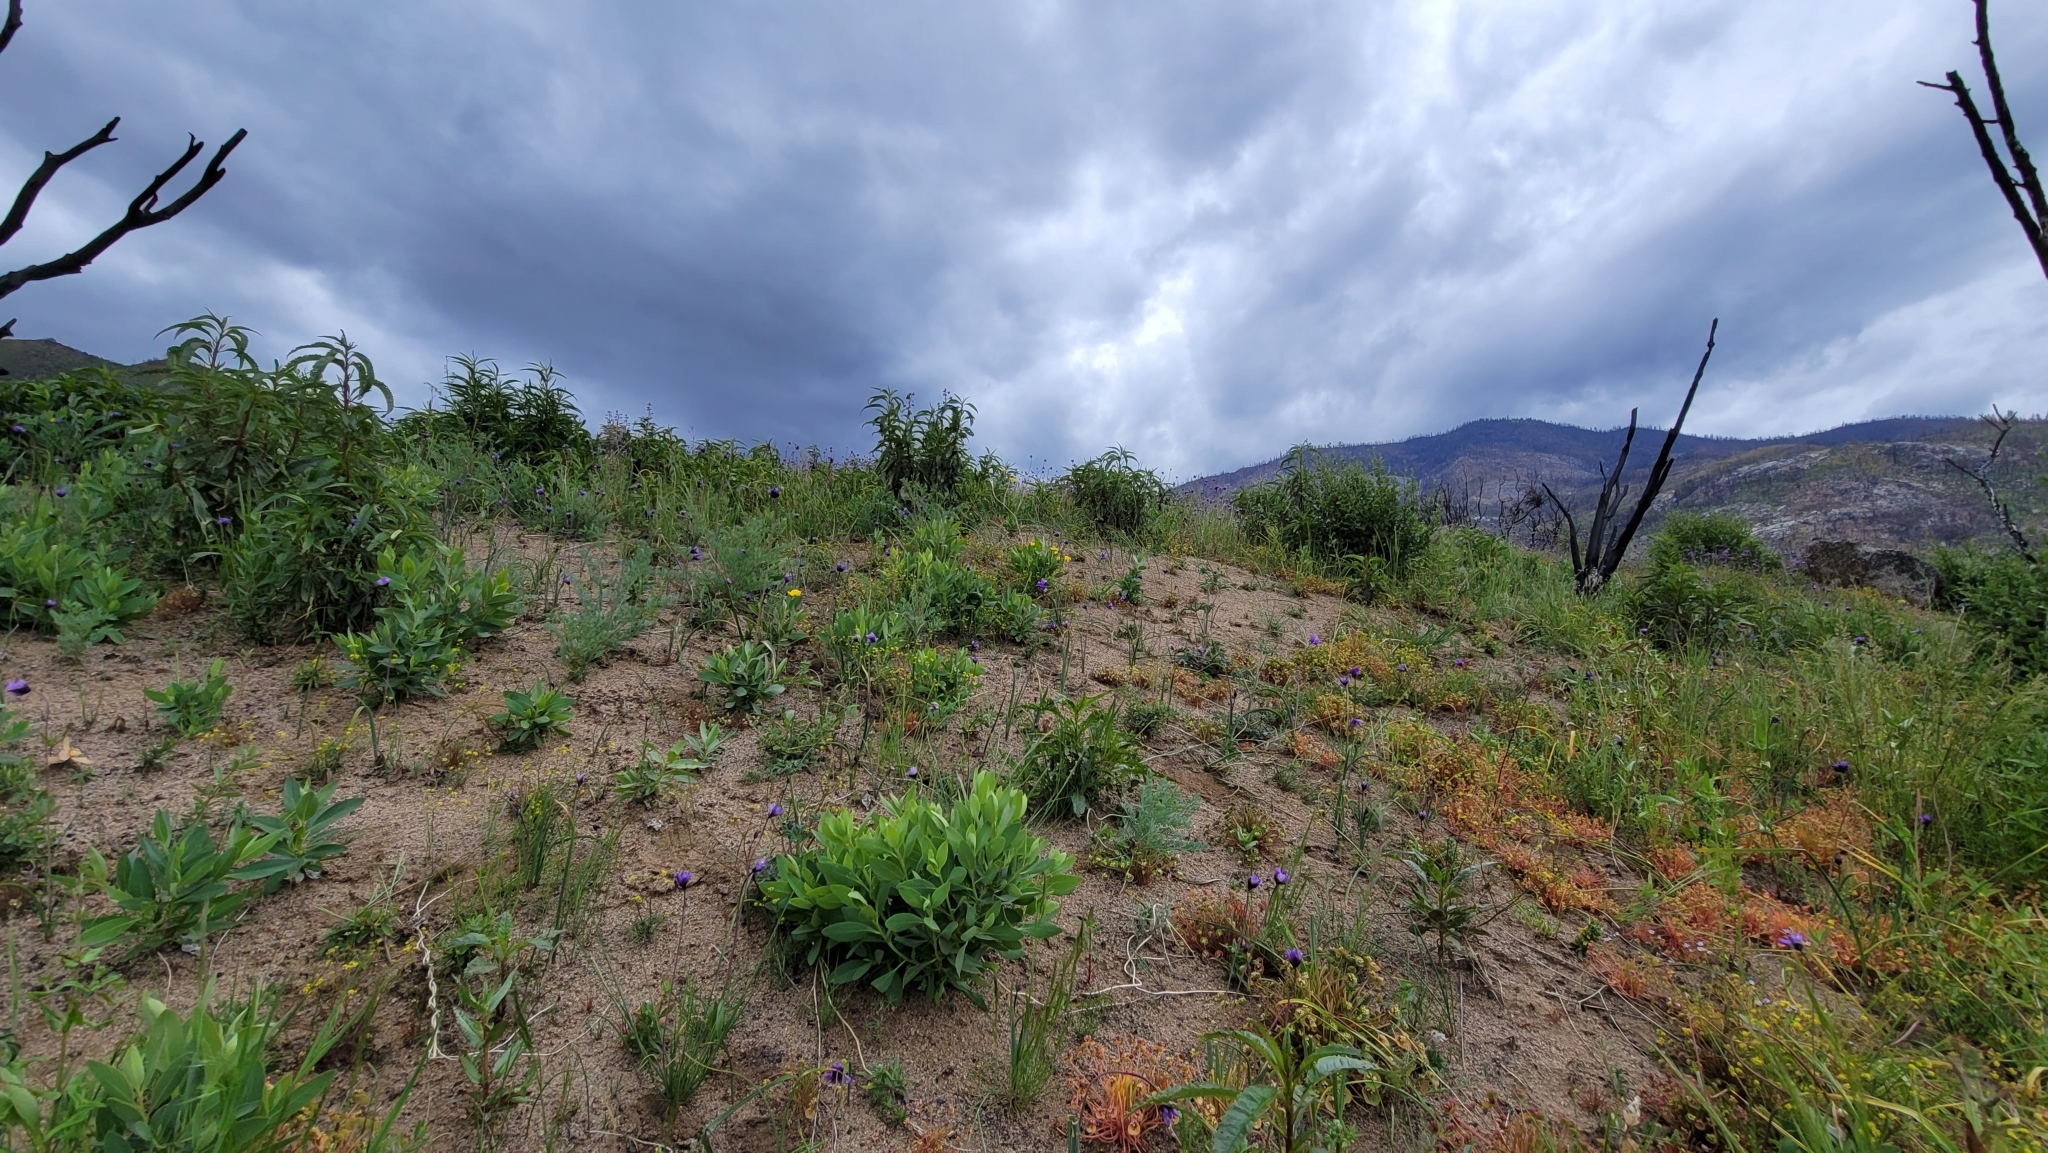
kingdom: Plantae
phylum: Tracheophyta
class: Magnoliopsida
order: Ericales
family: Polemoniaceae
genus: Leptosiphon
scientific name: Leptosiphon bicolor
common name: True babystars
